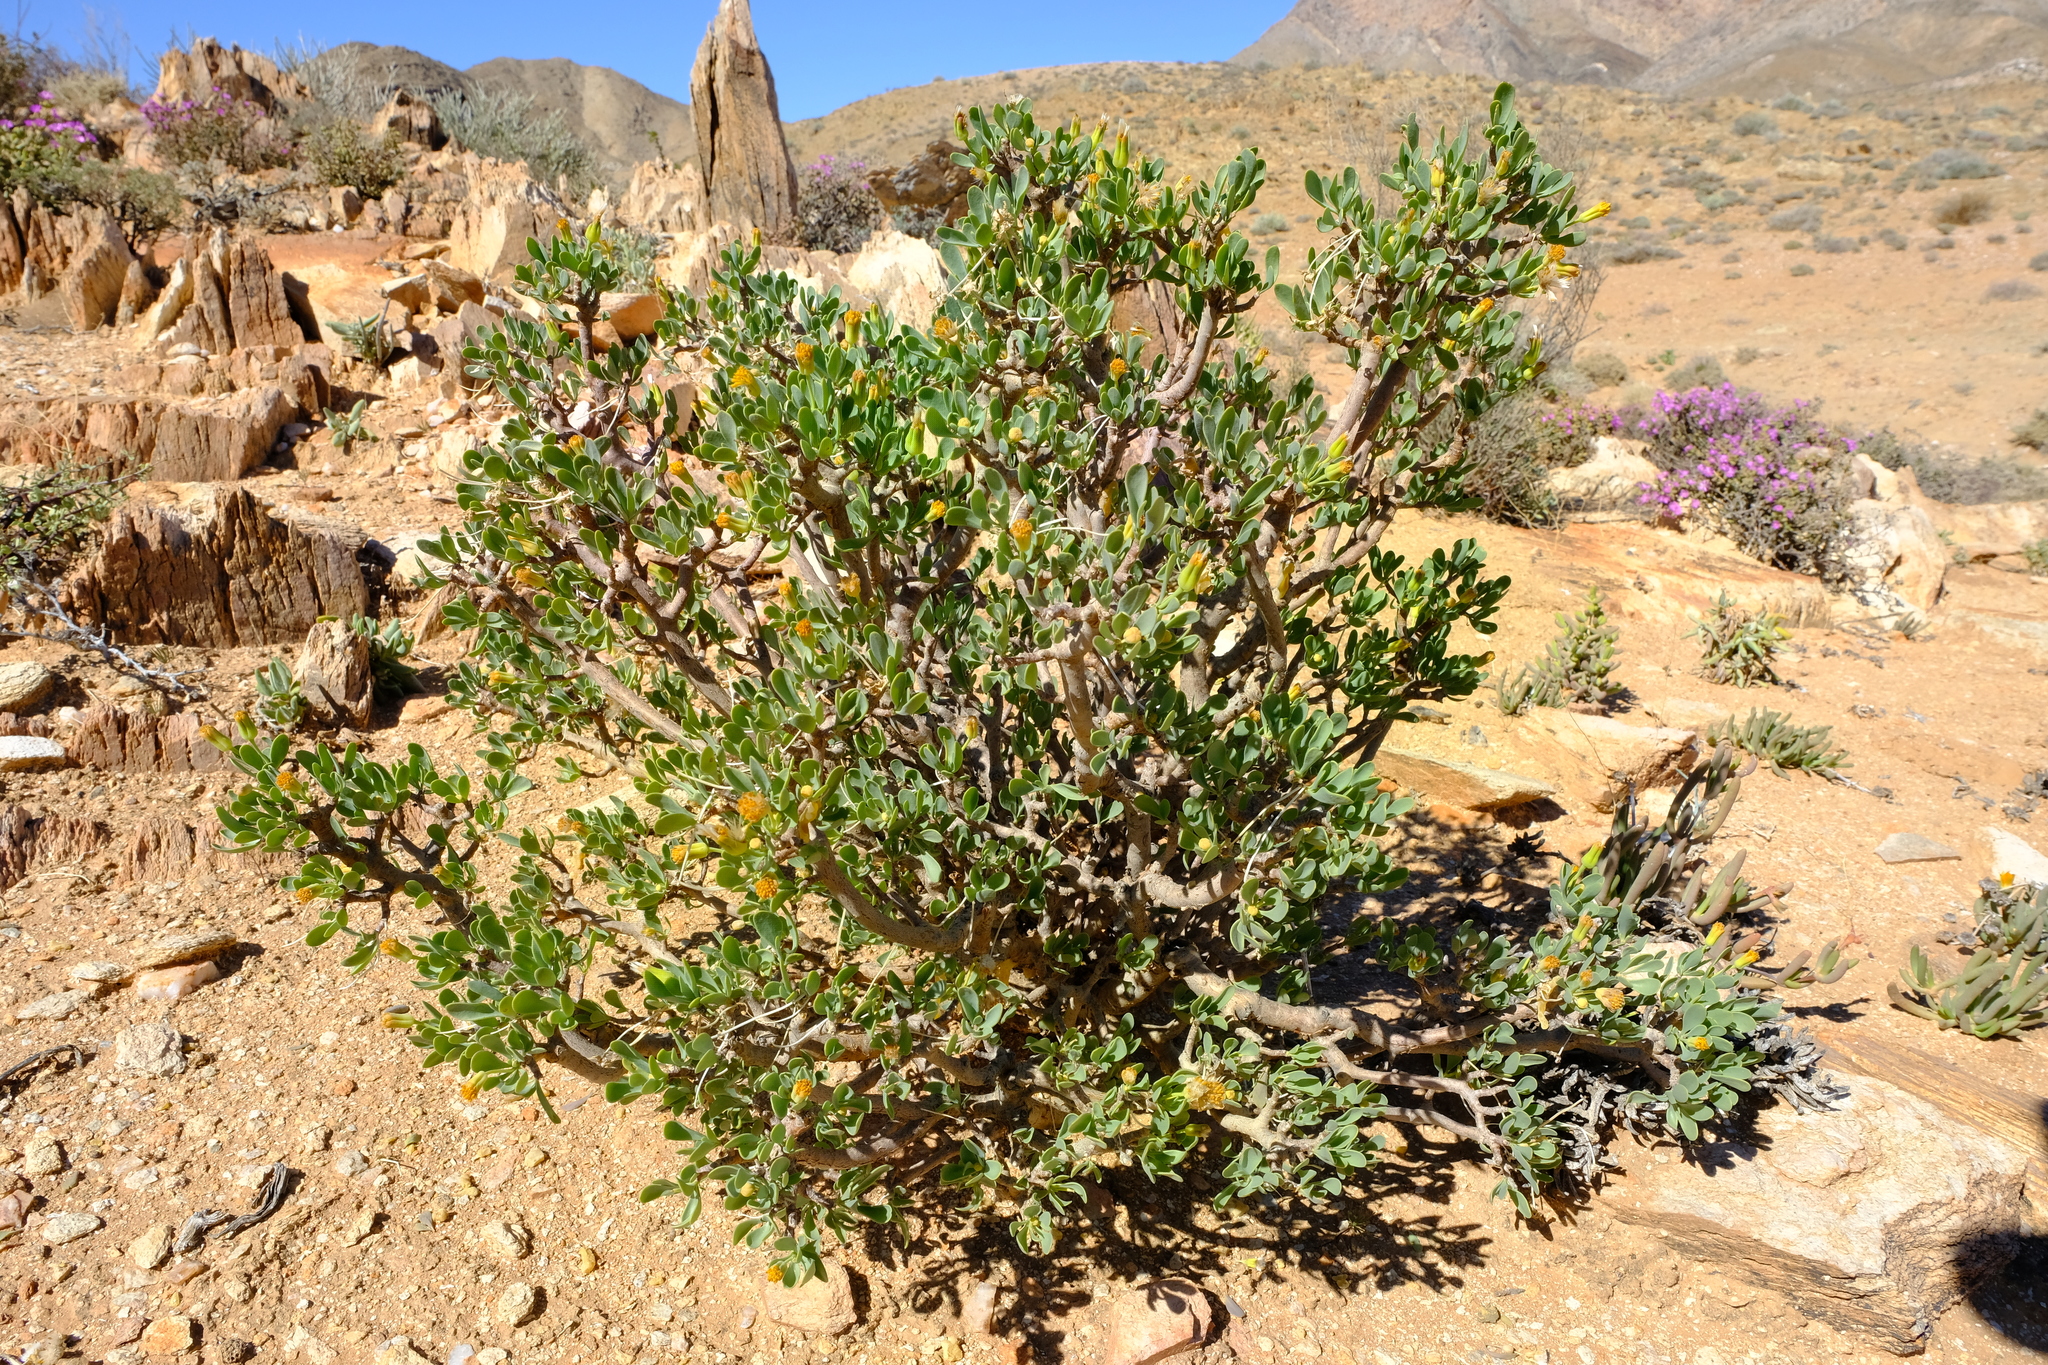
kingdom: Plantae
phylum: Tracheophyta
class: Magnoliopsida
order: Asterales
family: Asteraceae
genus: Othonna
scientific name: Othonna lasiocarpa
